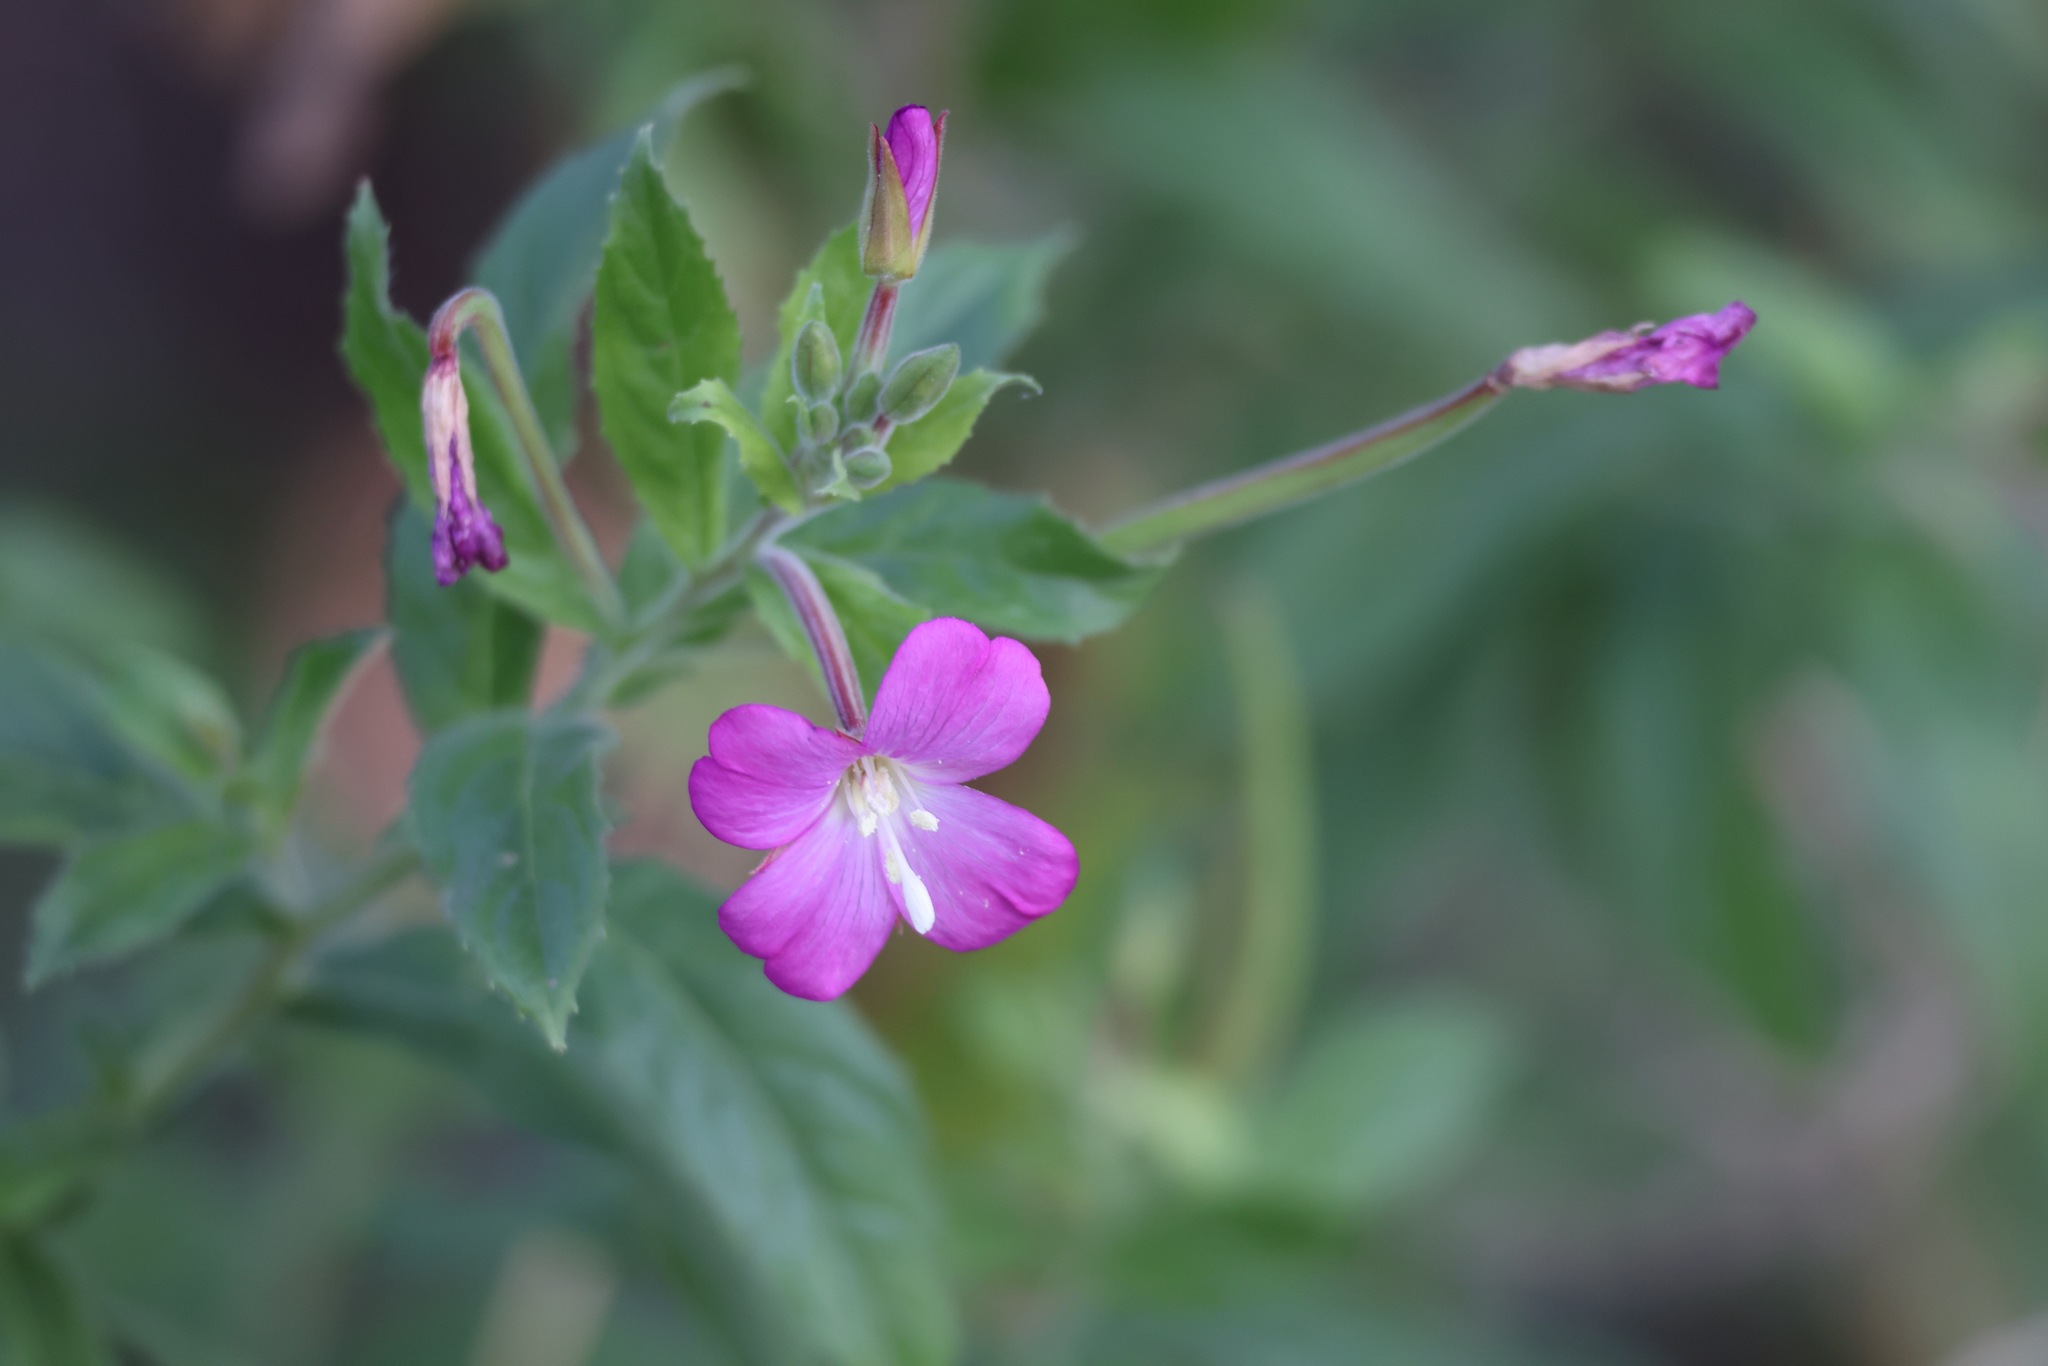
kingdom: Plantae
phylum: Tracheophyta
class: Magnoliopsida
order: Myrtales
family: Onagraceae
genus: Epilobium
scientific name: Epilobium hirsutum
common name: Great willowherb
